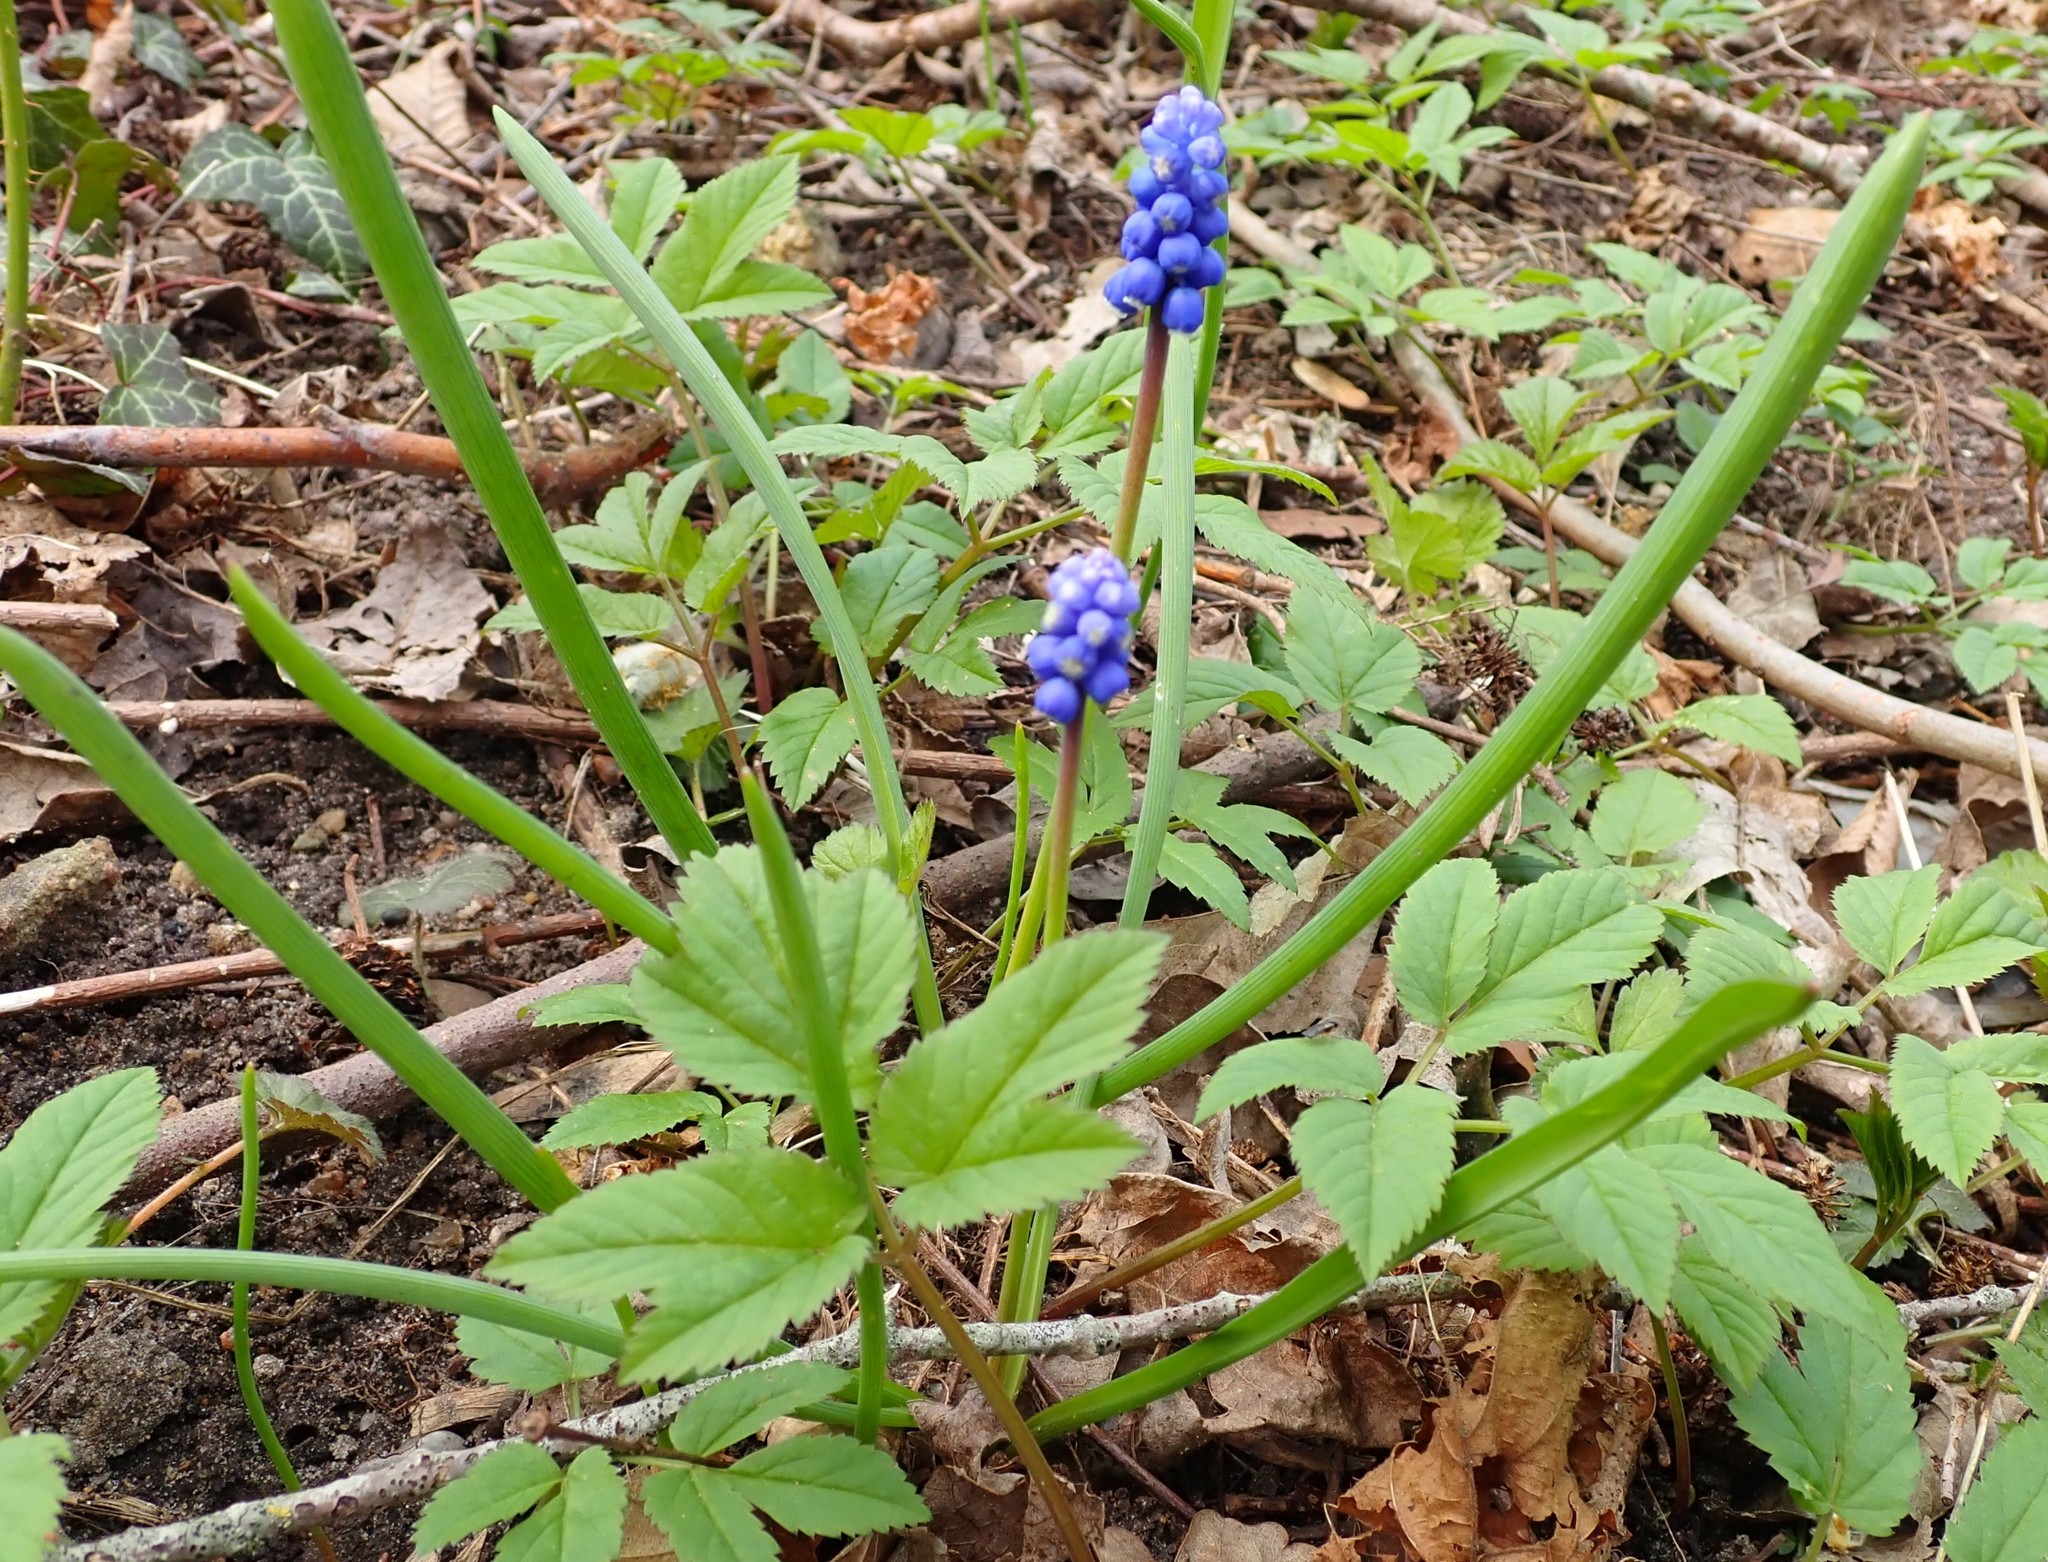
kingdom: Plantae
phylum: Tracheophyta
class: Liliopsida
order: Asparagales
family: Asparagaceae
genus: Muscari
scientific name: Muscari botryoides
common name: Compact grape-hyacinth
